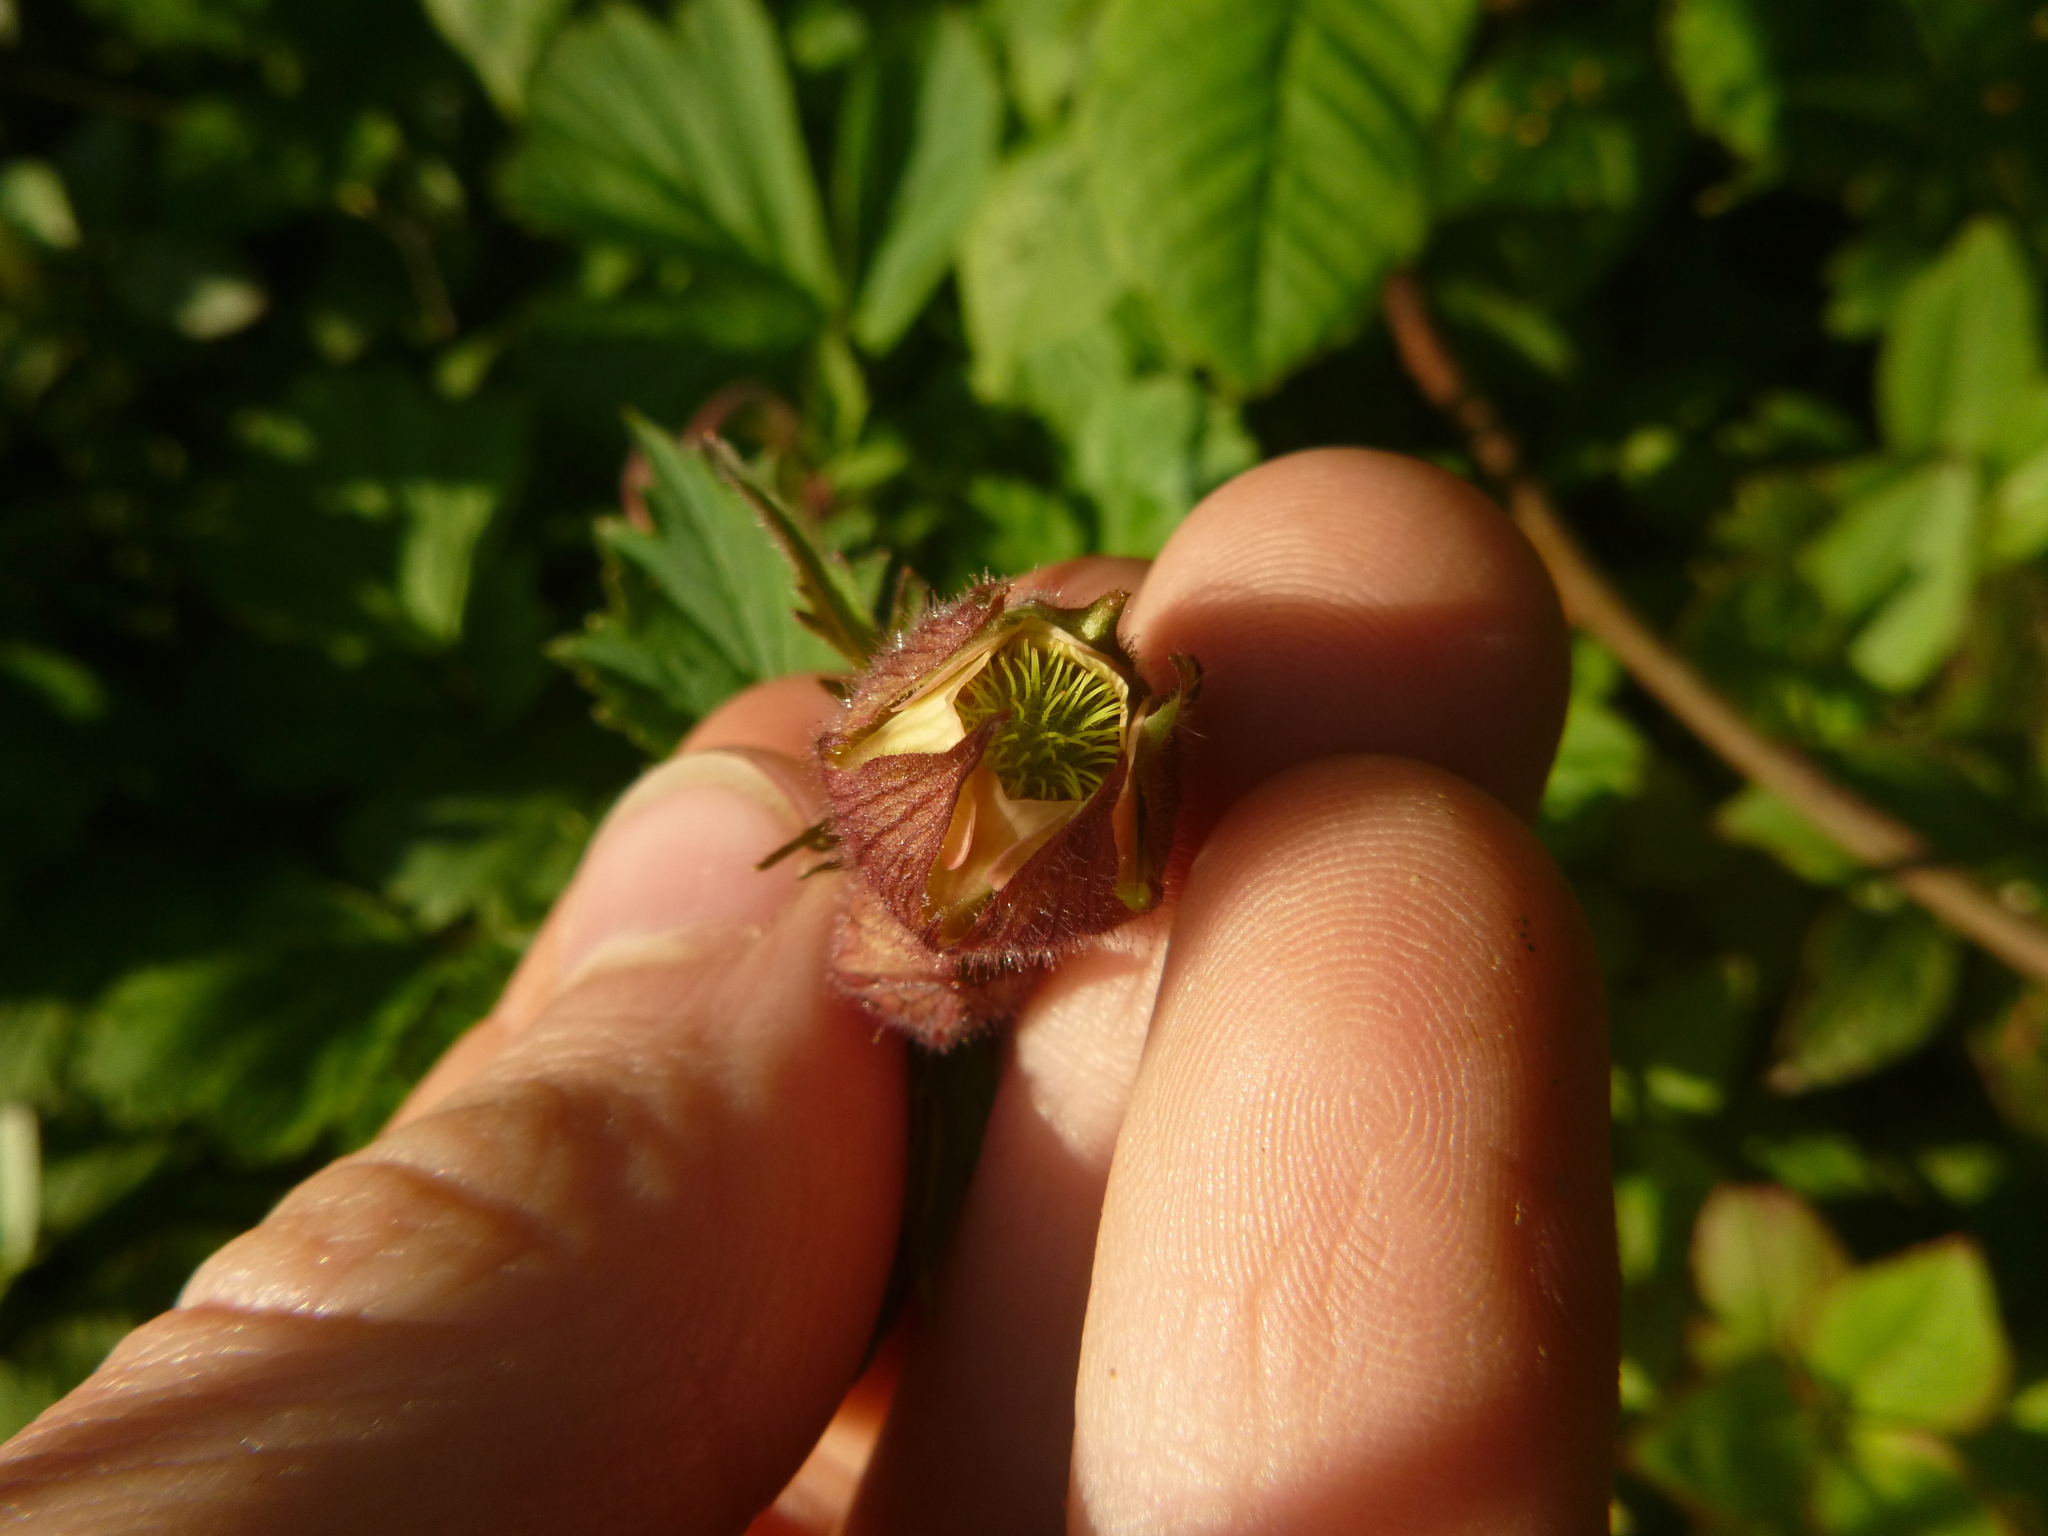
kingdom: Plantae
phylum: Tracheophyta
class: Magnoliopsida
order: Rosales
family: Rosaceae
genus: Geum
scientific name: Geum rivale
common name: Water avens
